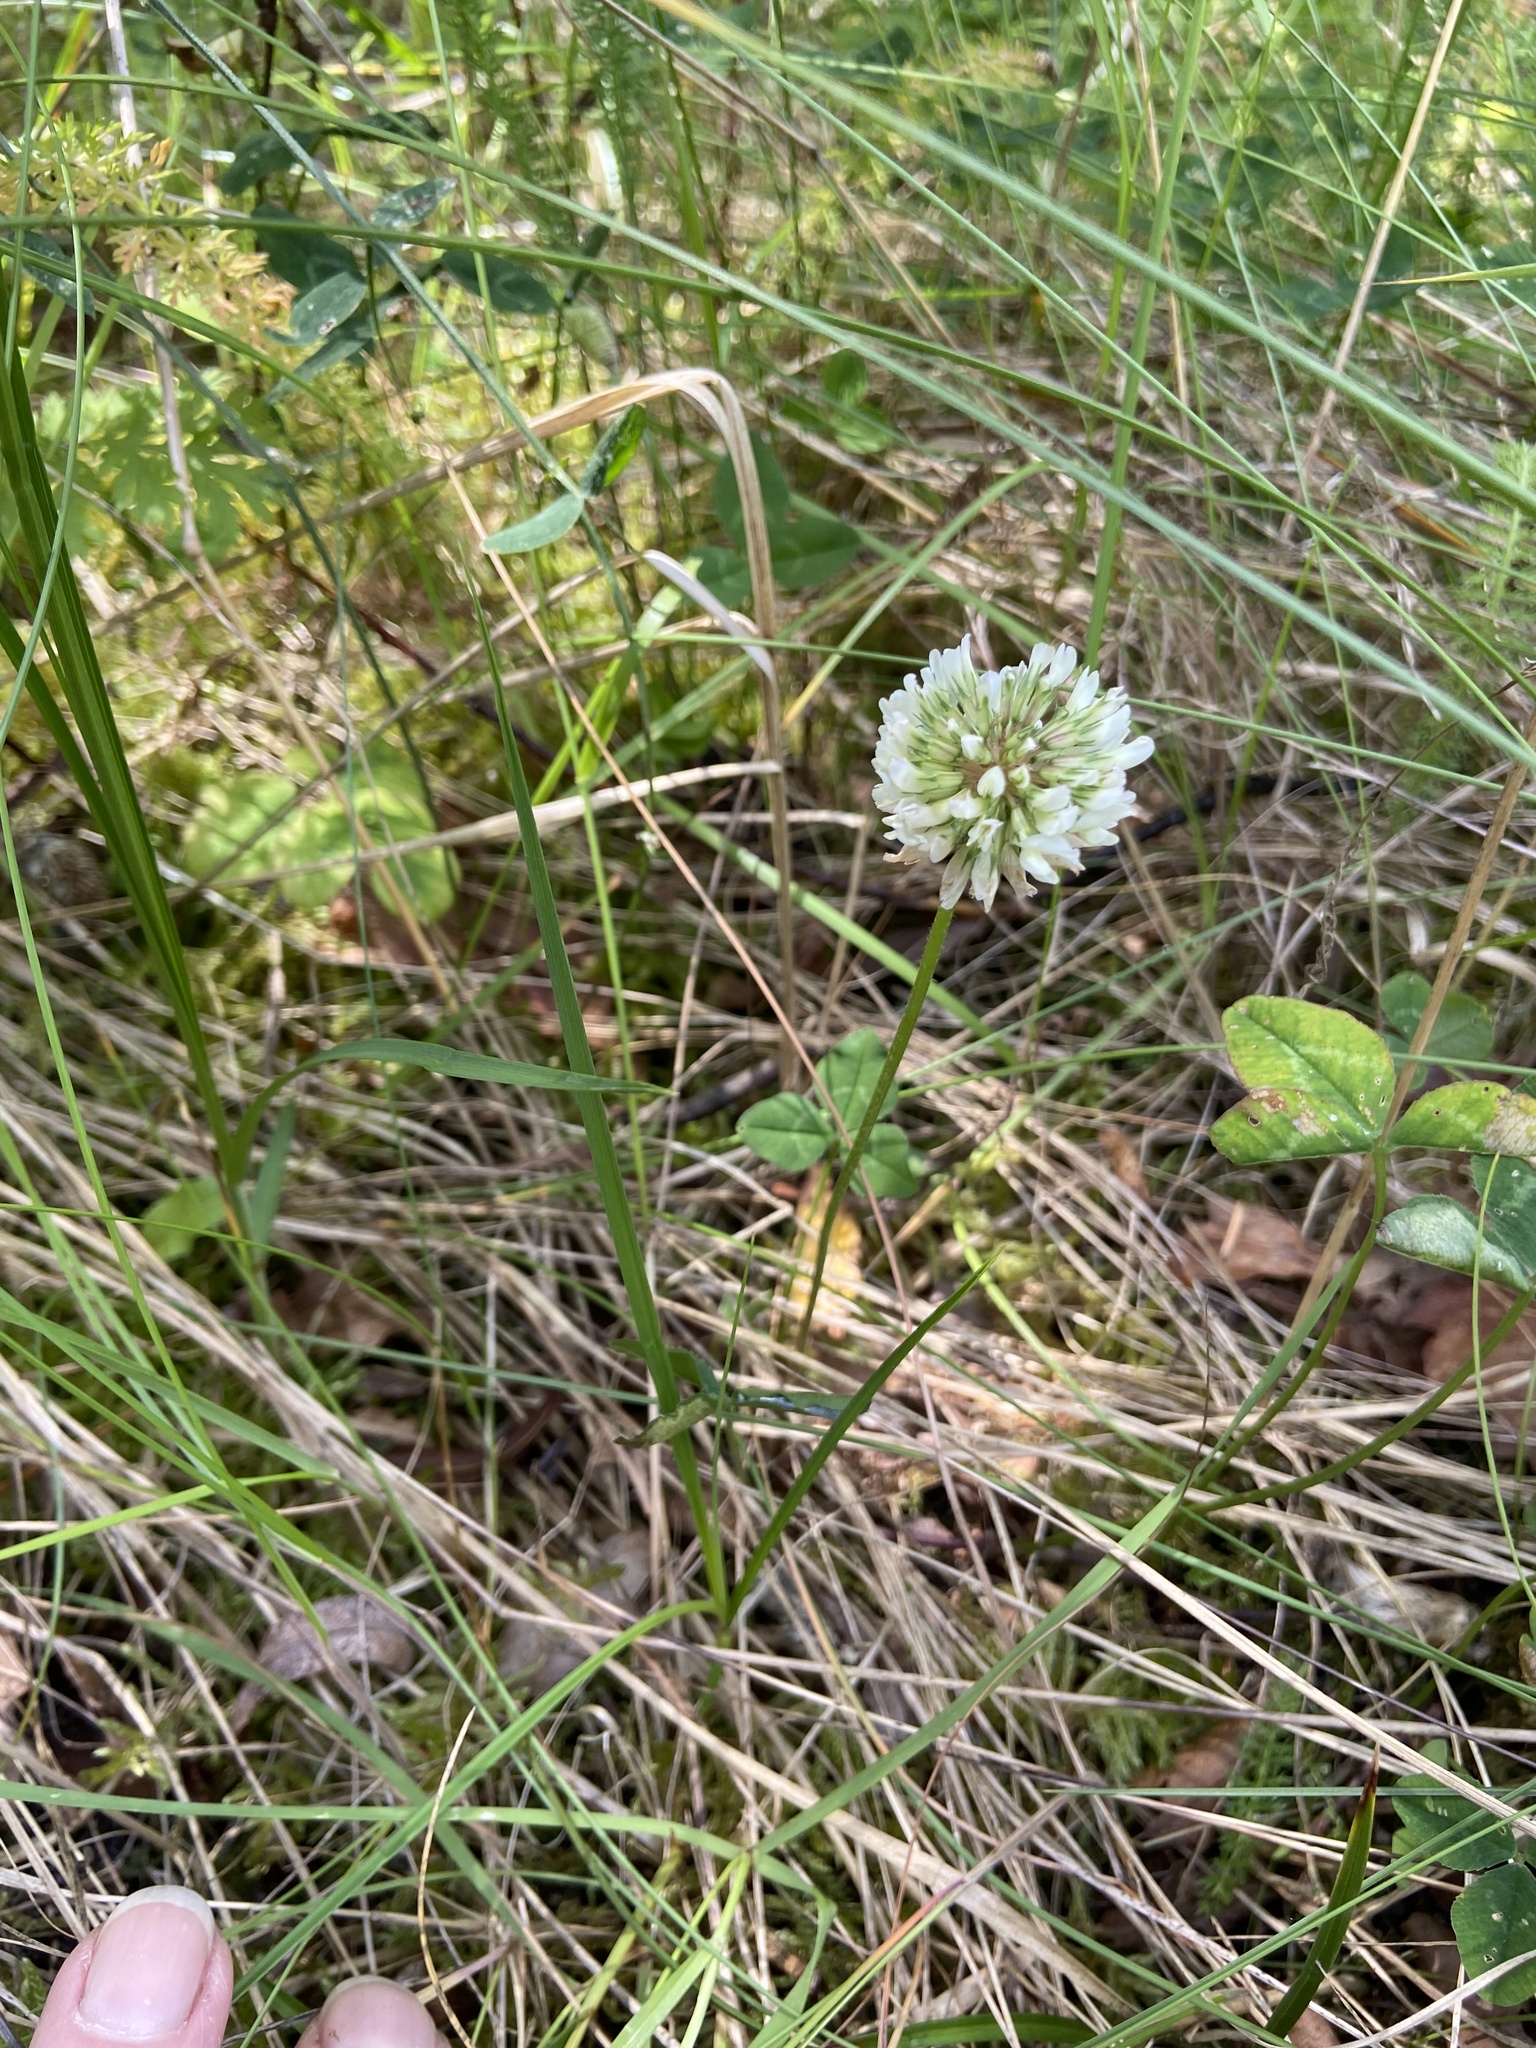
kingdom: Plantae
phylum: Tracheophyta
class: Magnoliopsida
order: Fabales
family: Fabaceae
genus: Trifolium
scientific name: Trifolium repens
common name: White clover
